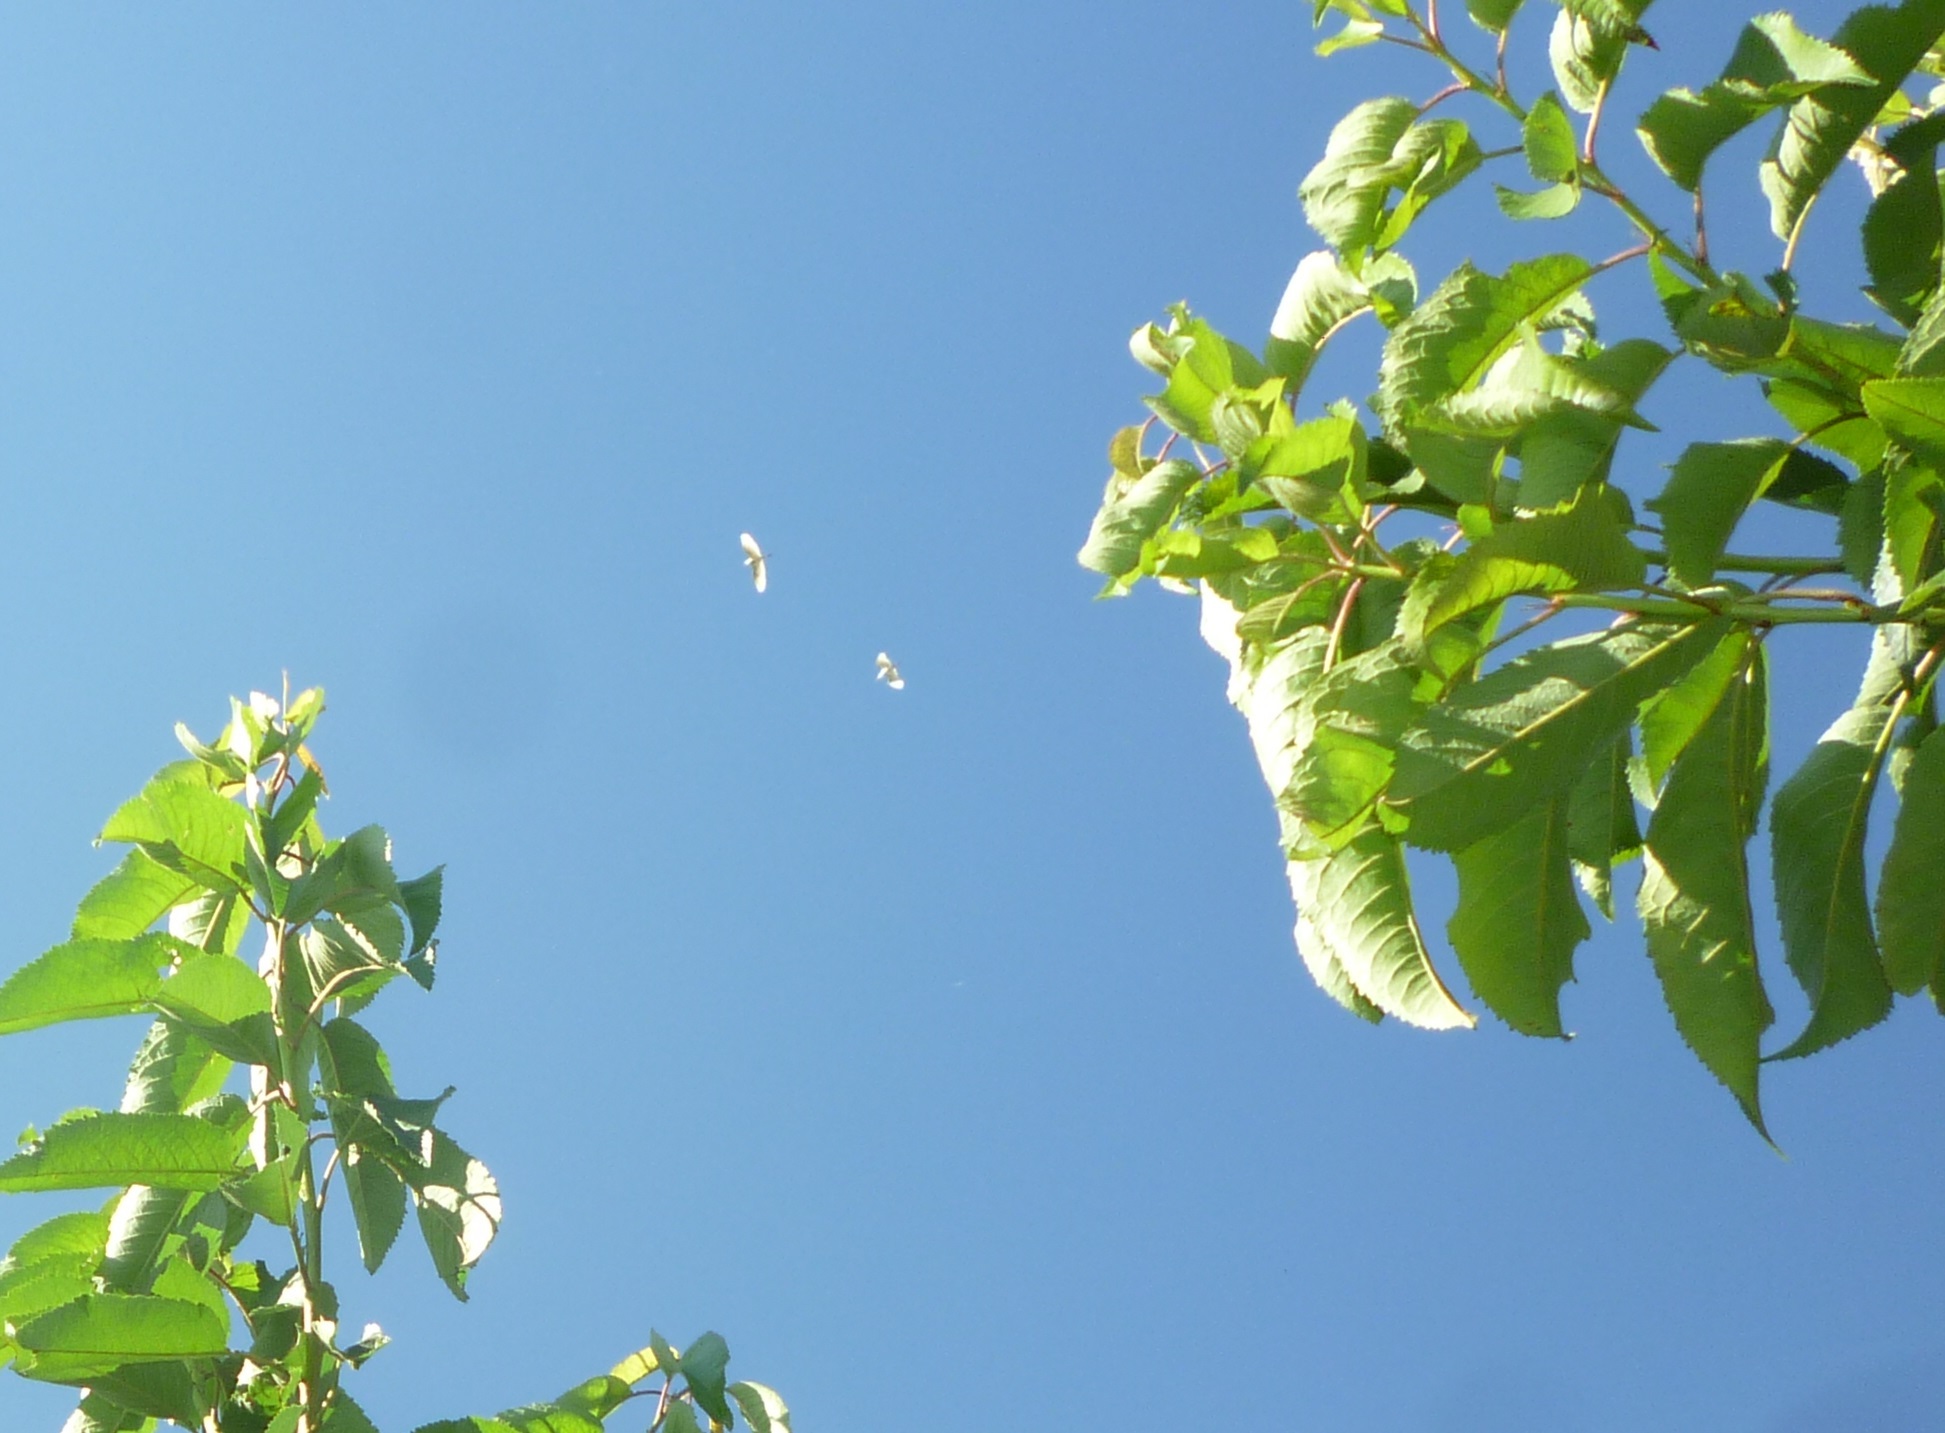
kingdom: Animalia
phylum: Chordata
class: Aves
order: Pelecaniformes
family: Ardeidae
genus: Bubulcus
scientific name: Bubulcus ibis
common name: Cattle egret
